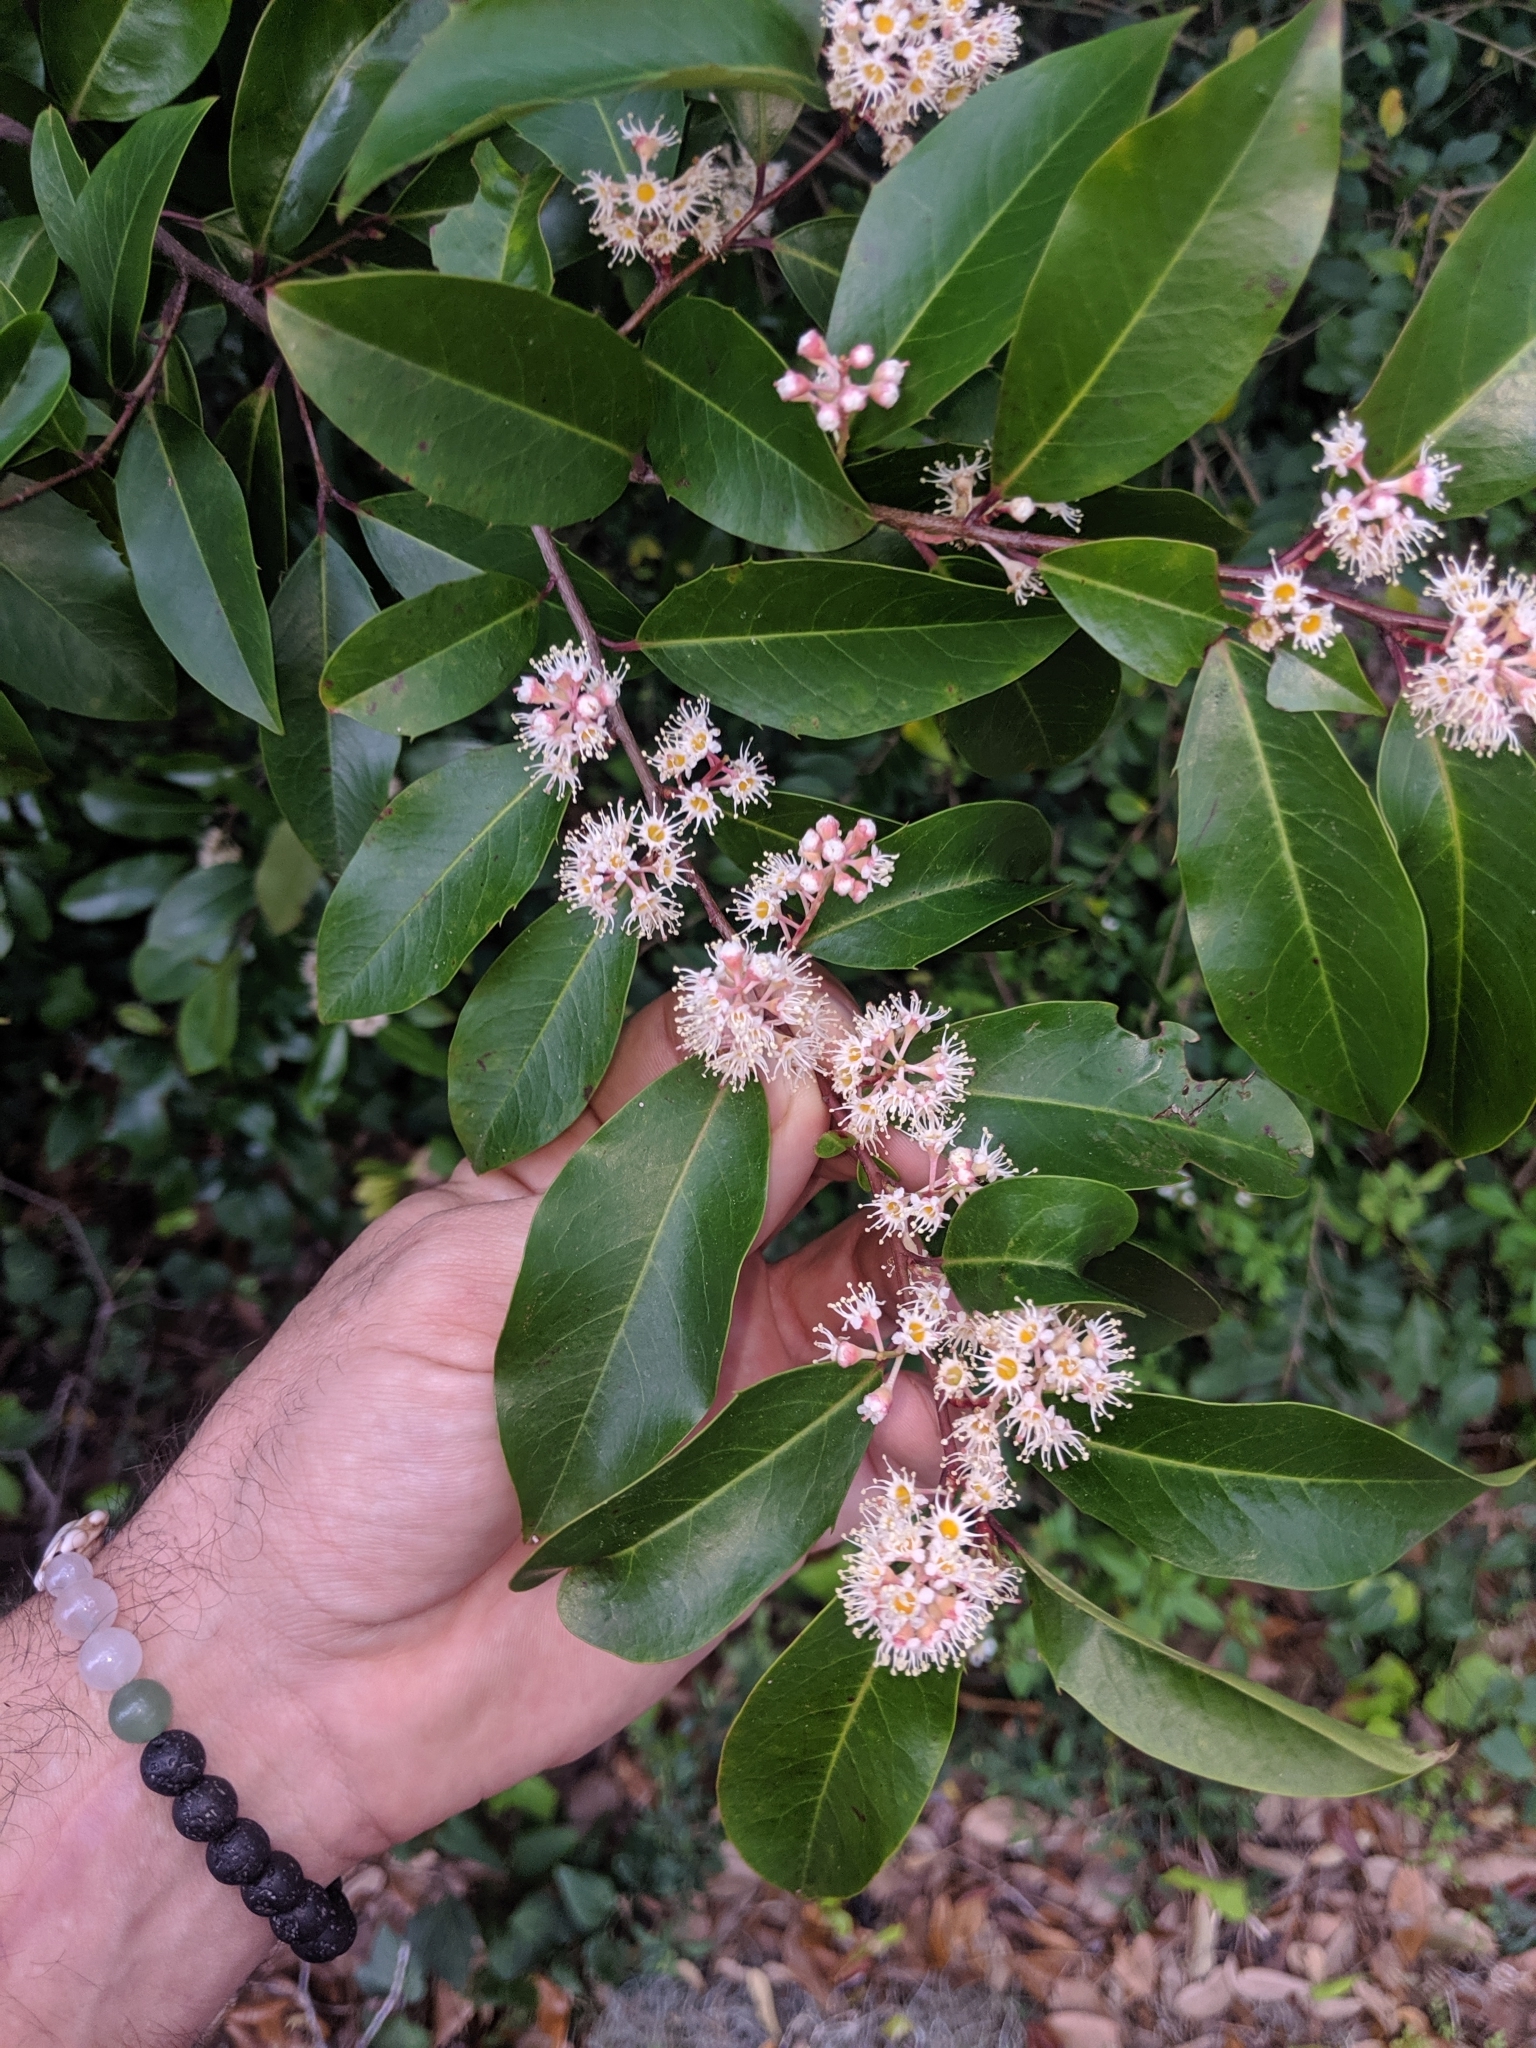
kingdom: Plantae
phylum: Tracheophyta
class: Magnoliopsida
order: Rosales
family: Rosaceae
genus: Prunus
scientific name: Prunus caroliniana
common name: Carolina laurel cherry
